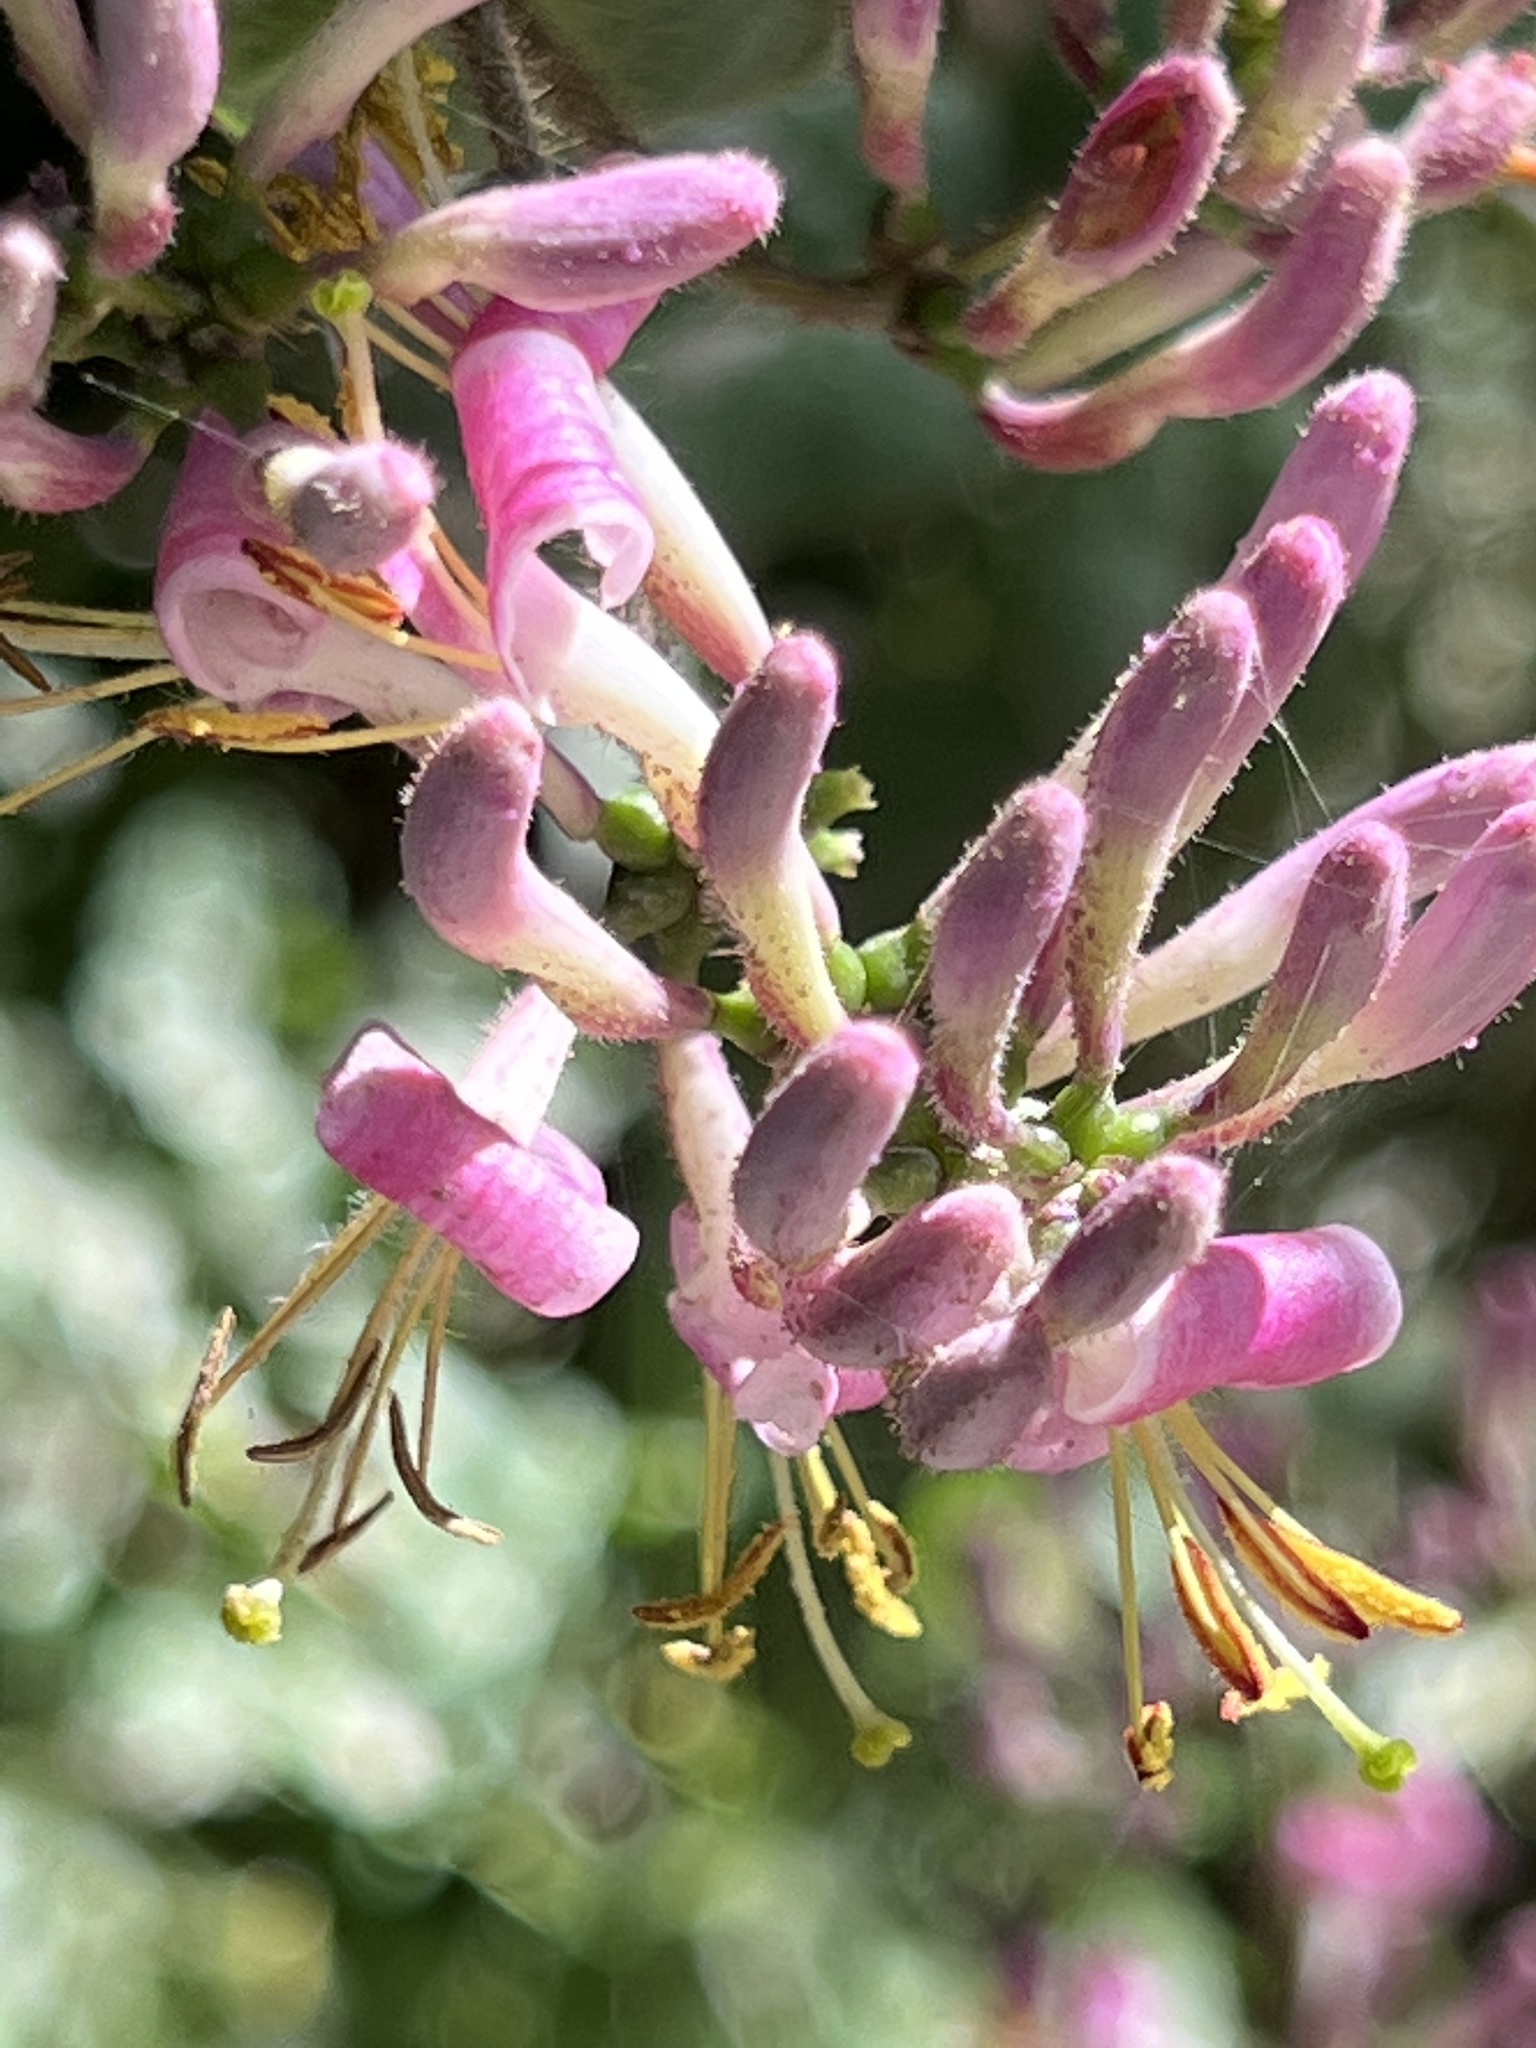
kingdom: Plantae
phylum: Tracheophyta
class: Magnoliopsida
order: Dipsacales
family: Caprifoliaceae
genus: Lonicera
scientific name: Lonicera hispidula
